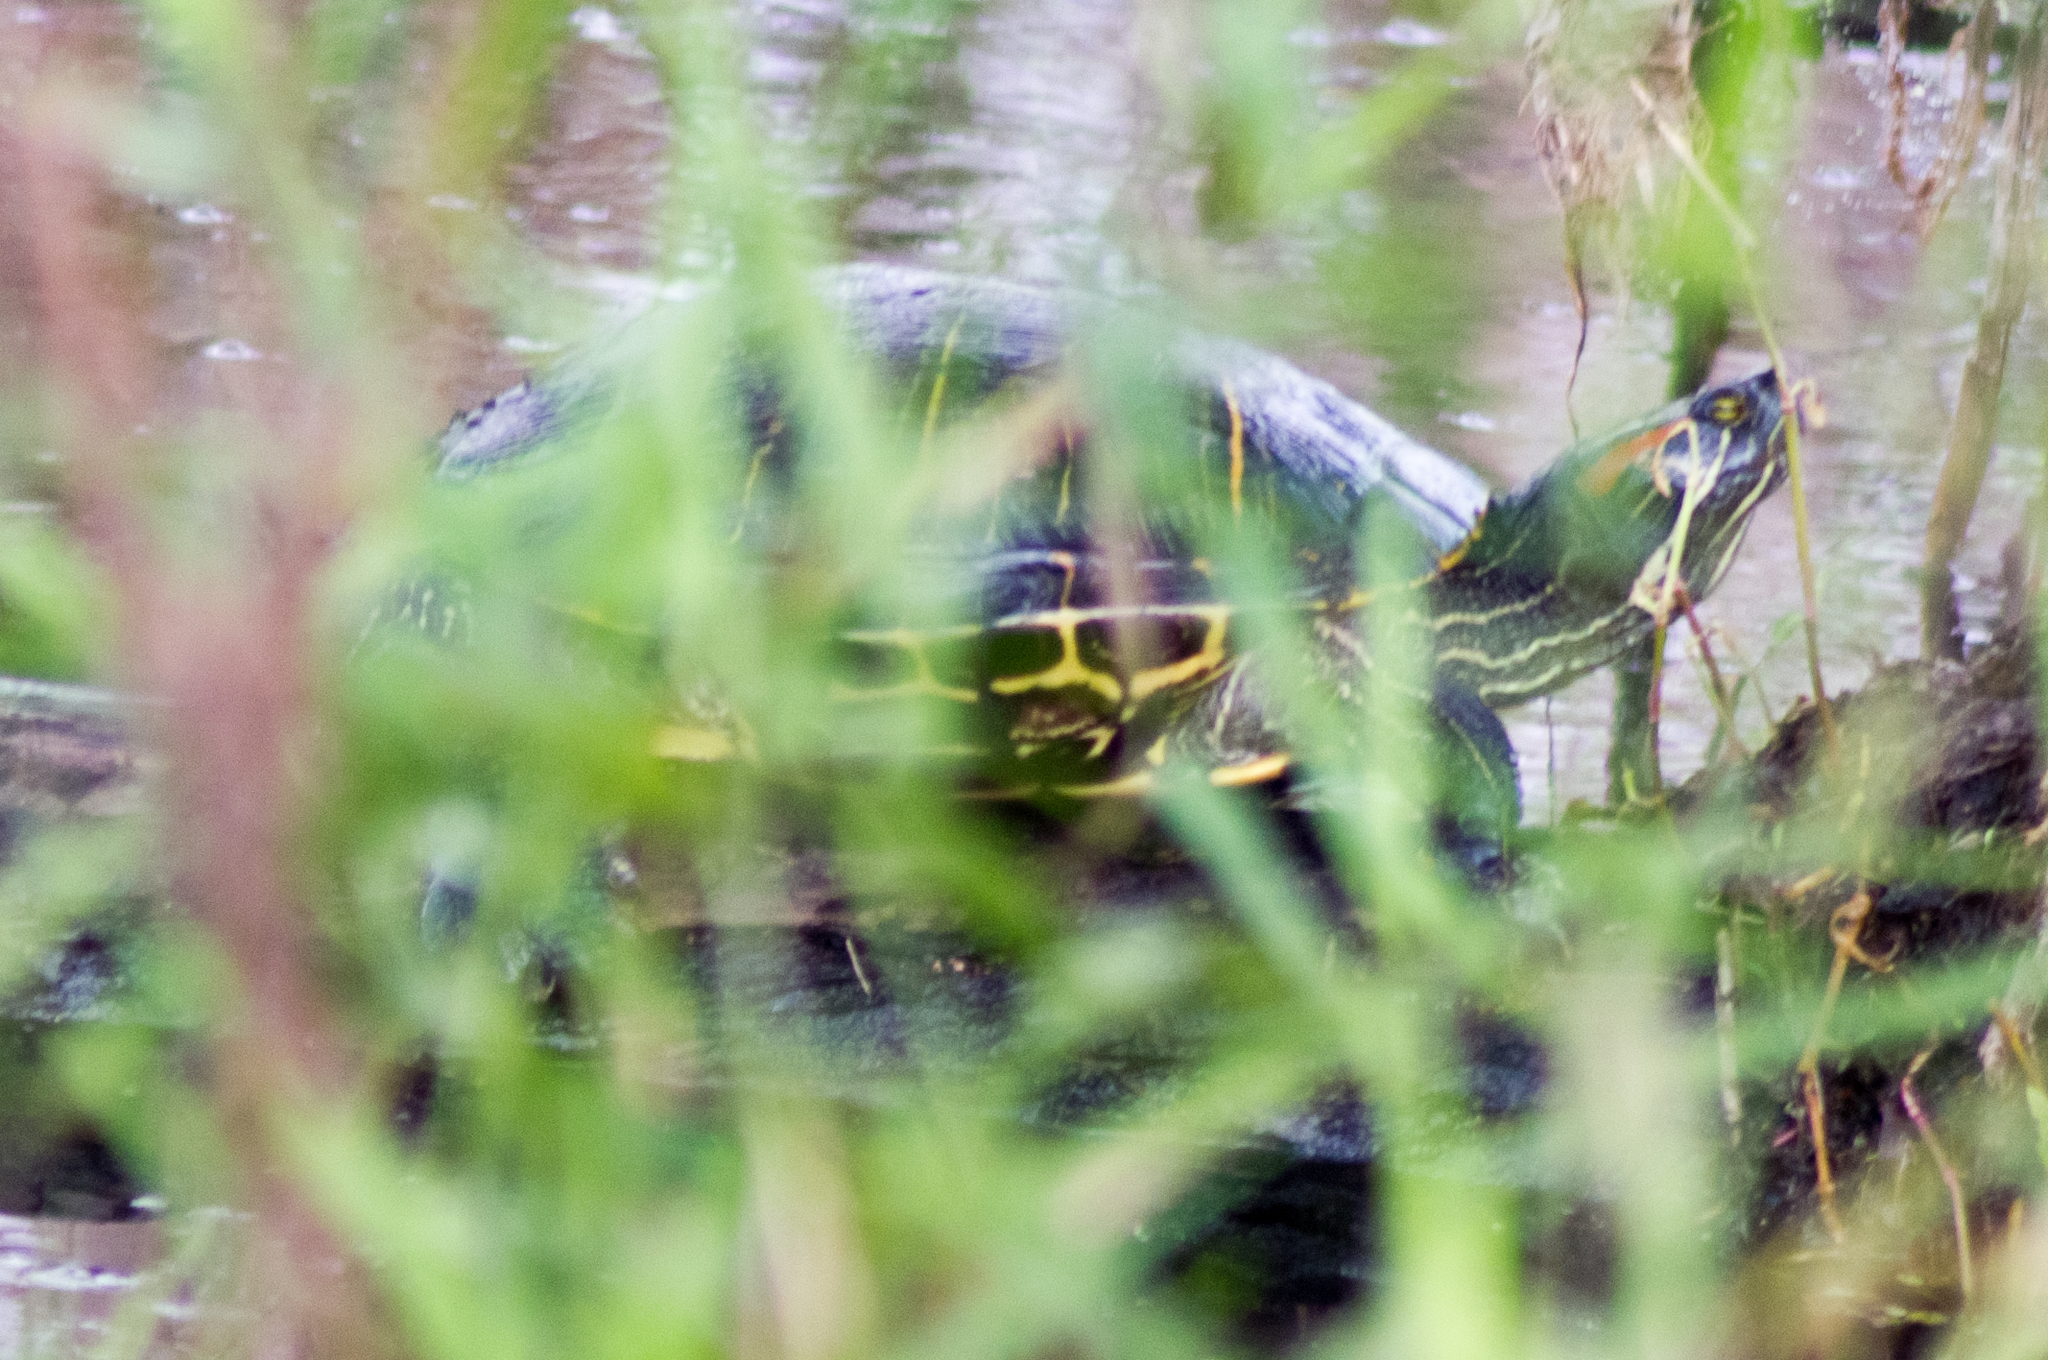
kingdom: Animalia
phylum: Chordata
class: Testudines
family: Emydidae
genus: Trachemys
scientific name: Trachemys scripta
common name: Slider
